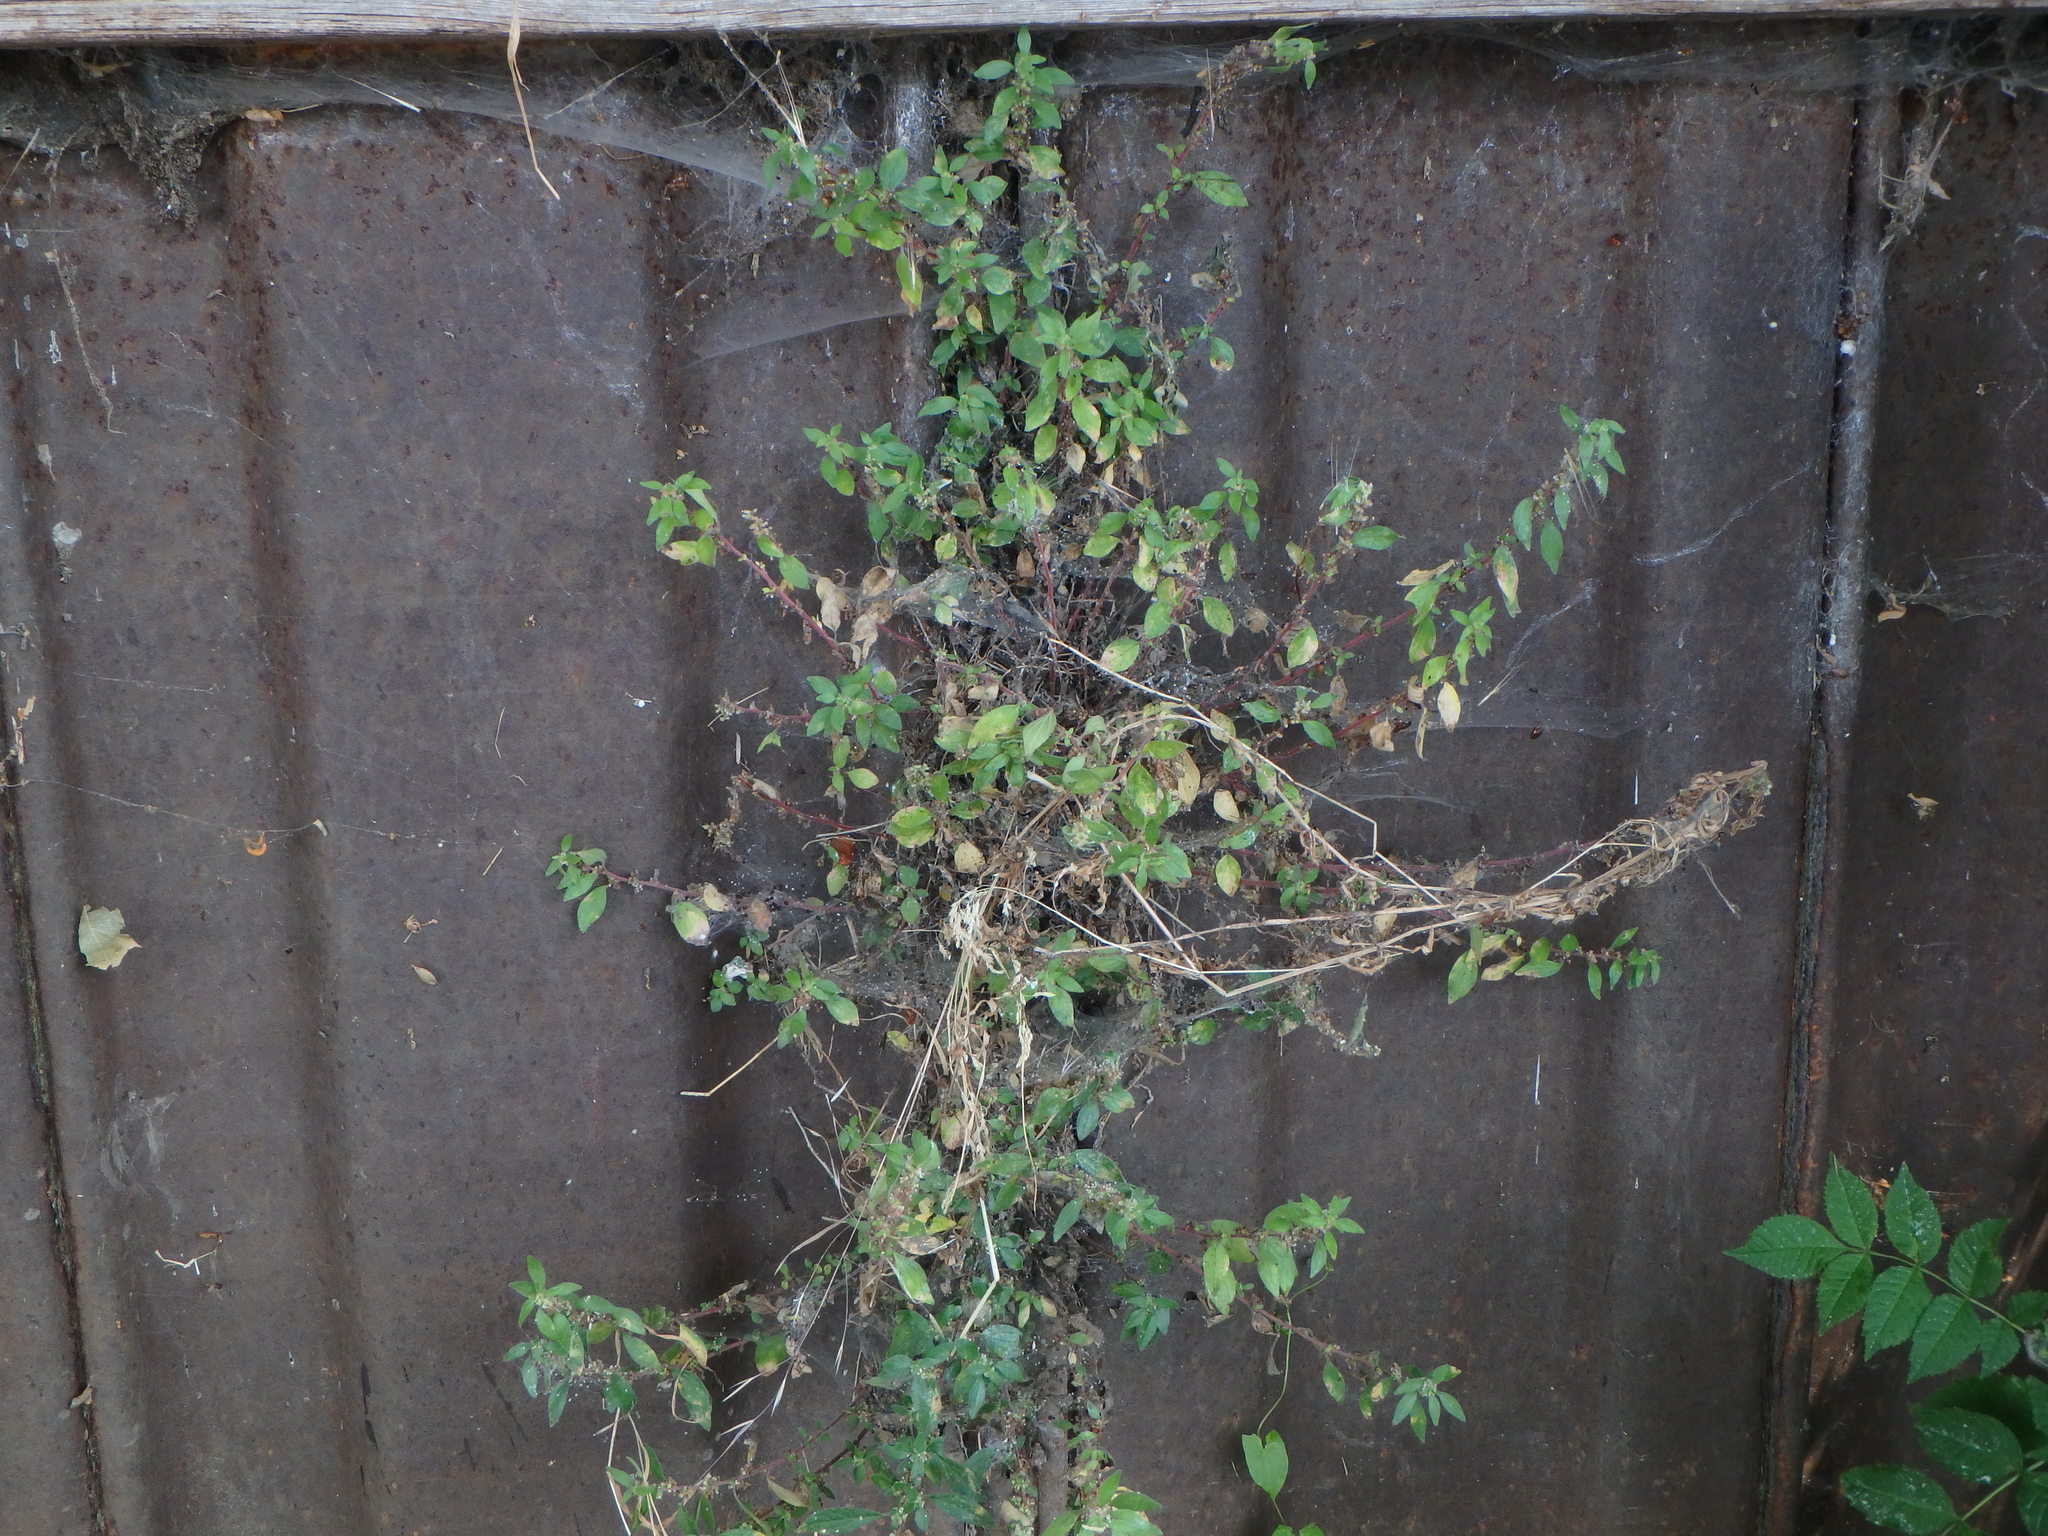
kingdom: Plantae
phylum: Tracheophyta
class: Magnoliopsida
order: Rosales
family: Urticaceae
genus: Parietaria
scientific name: Parietaria judaica
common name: Pellitory-of-the-wall
